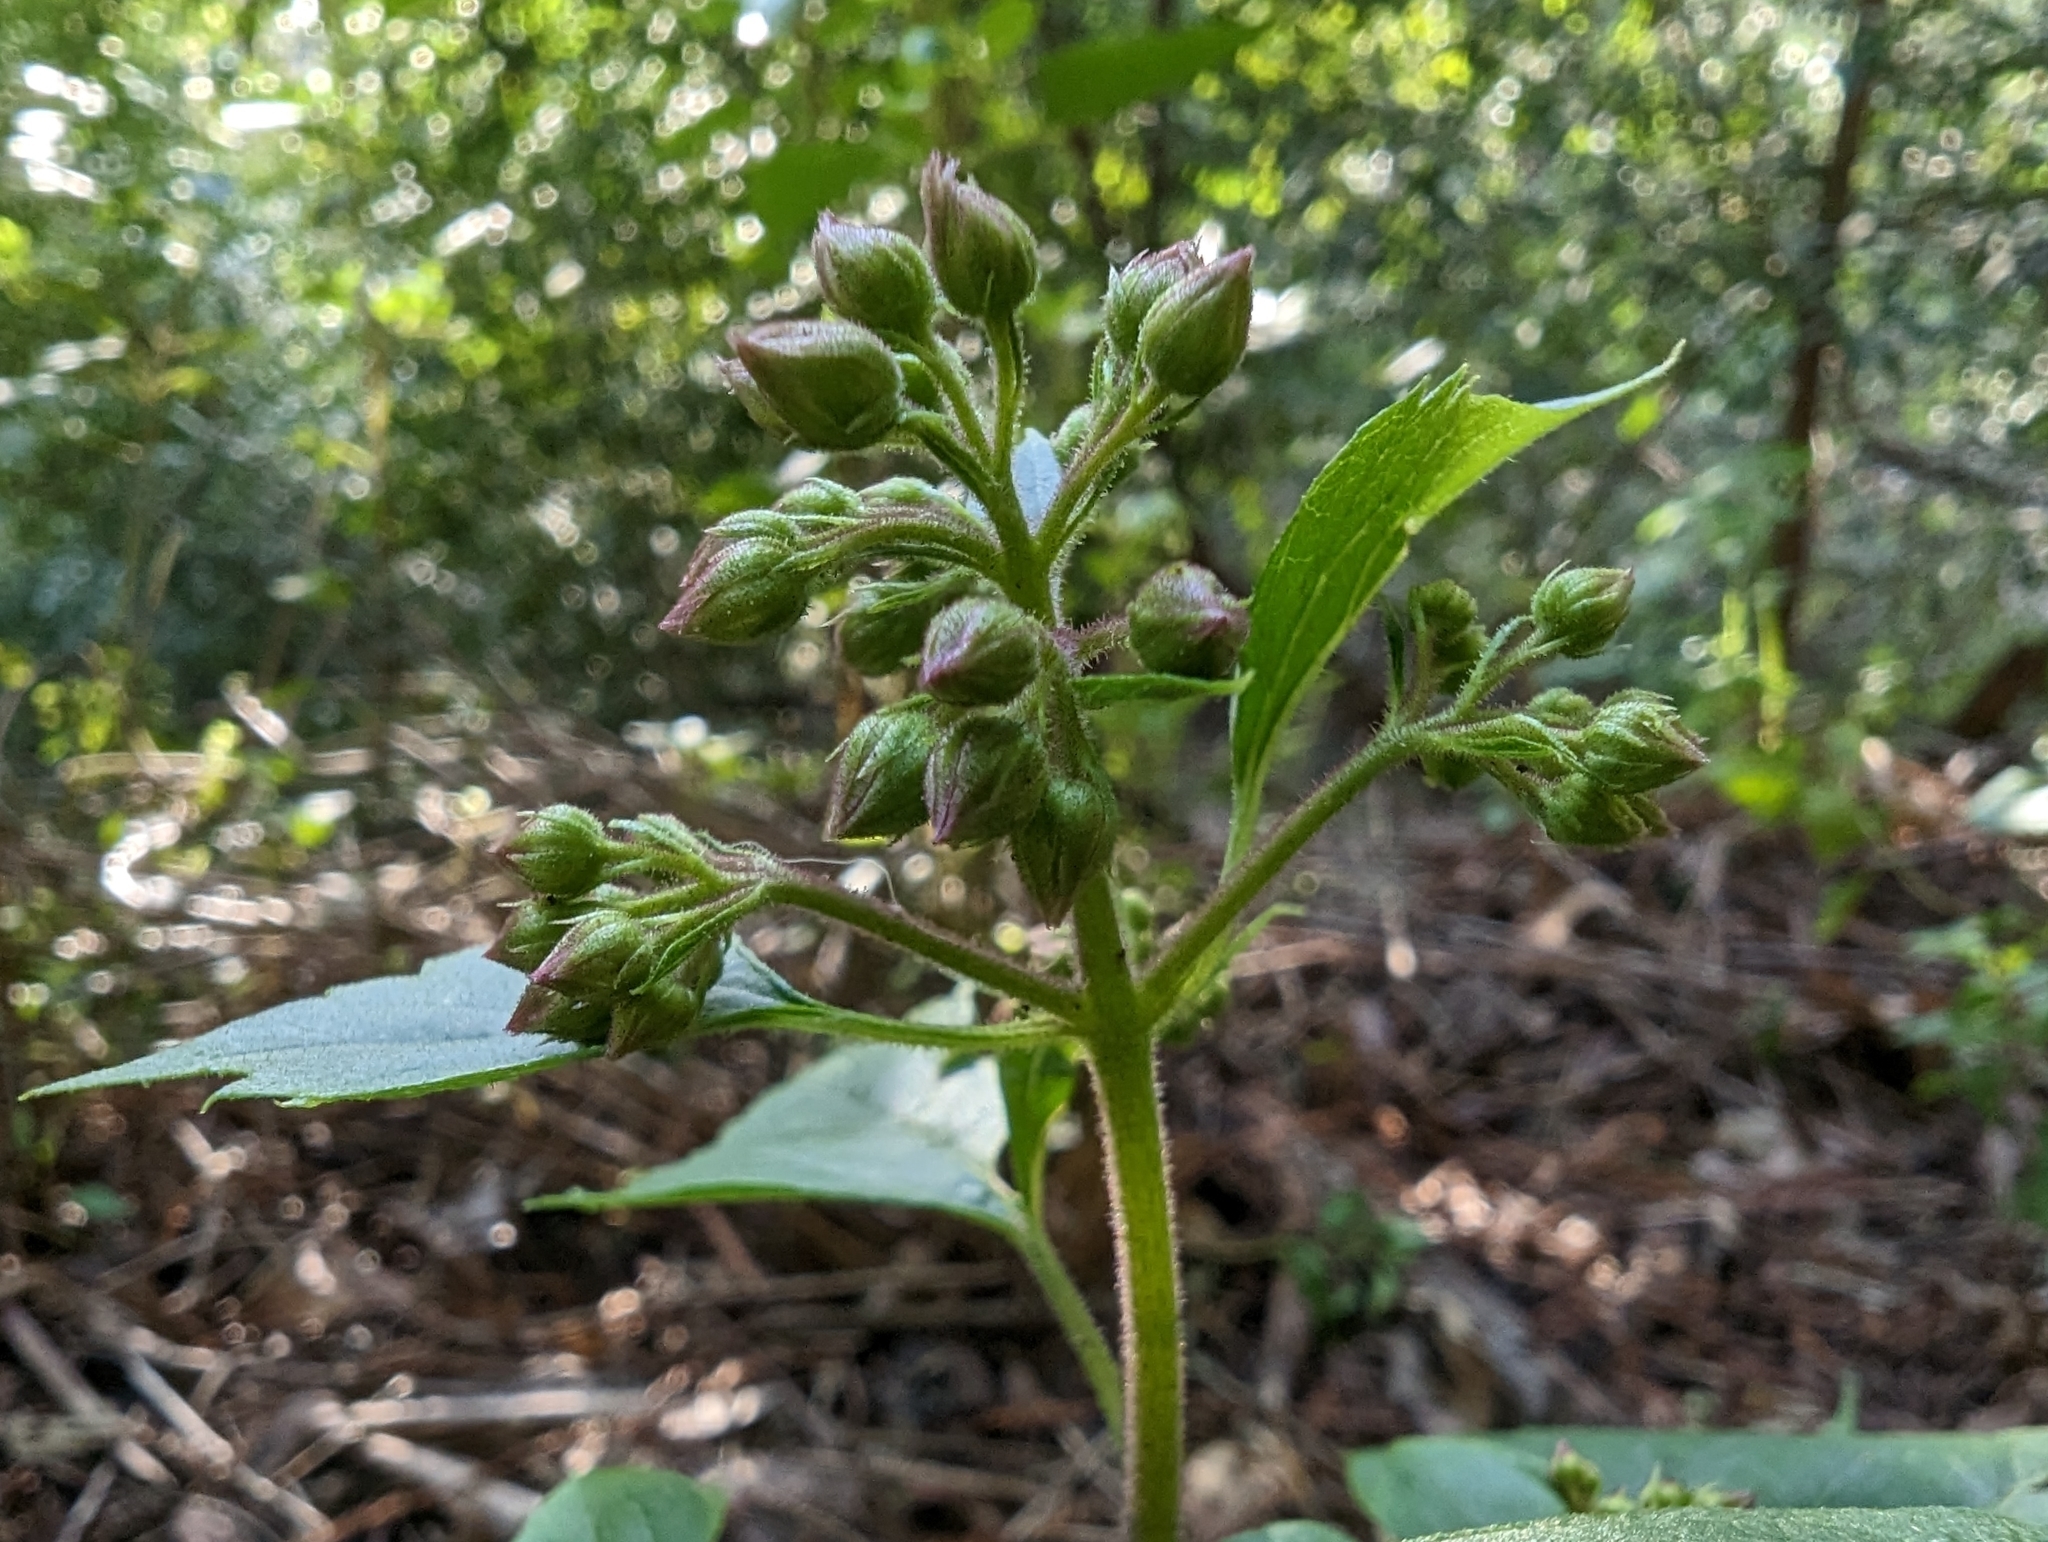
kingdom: Plantae
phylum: Tracheophyta
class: Magnoliopsida
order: Asterales
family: Asteraceae
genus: Ageratina
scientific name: Ageratina adenophora
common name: Sticky snakeroot
